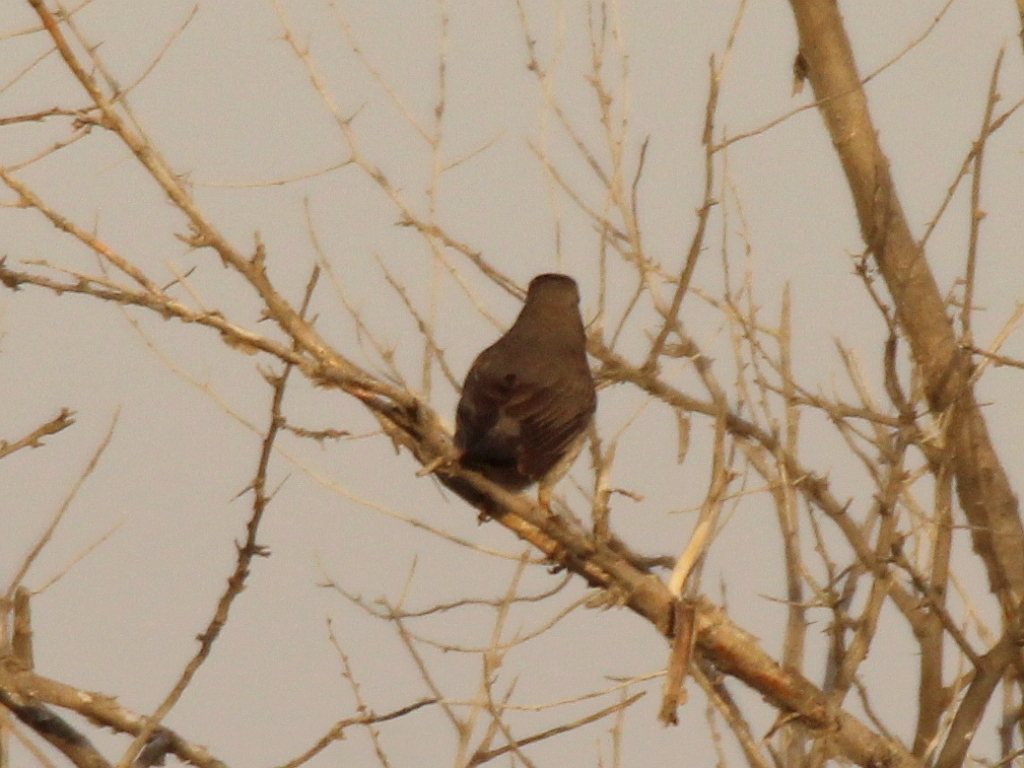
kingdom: Animalia
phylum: Chordata
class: Aves
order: Passeriformes
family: Turdidae
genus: Turdus
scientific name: Turdus atrogularis
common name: Black-throated thrush
